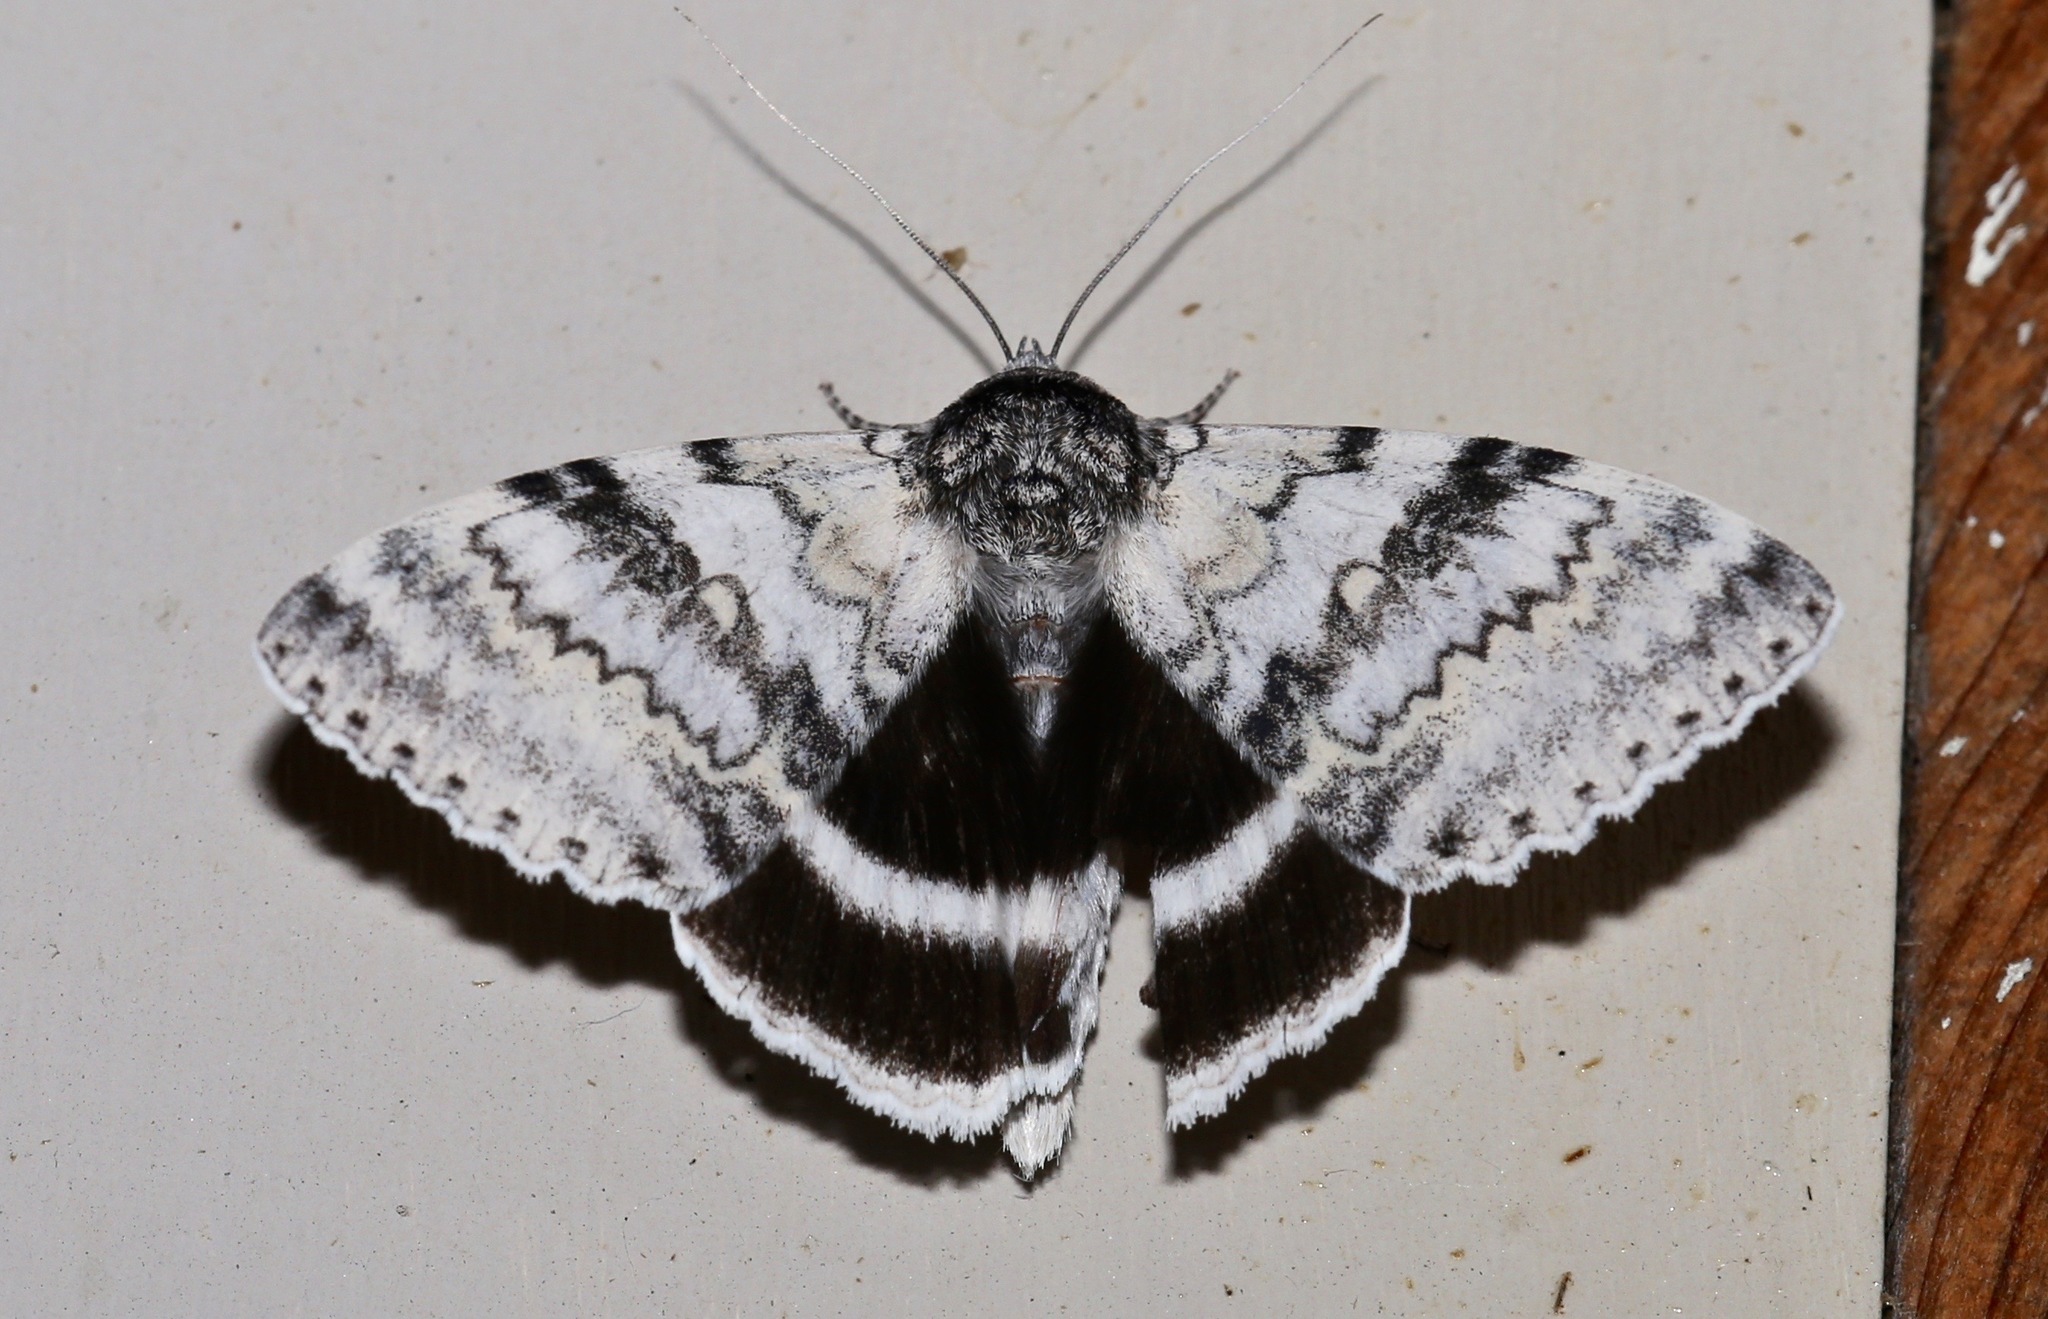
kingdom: Animalia
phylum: Arthropoda
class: Insecta
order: Lepidoptera
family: Erebidae
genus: Catocala
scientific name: Catocala relicta
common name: White underwing
